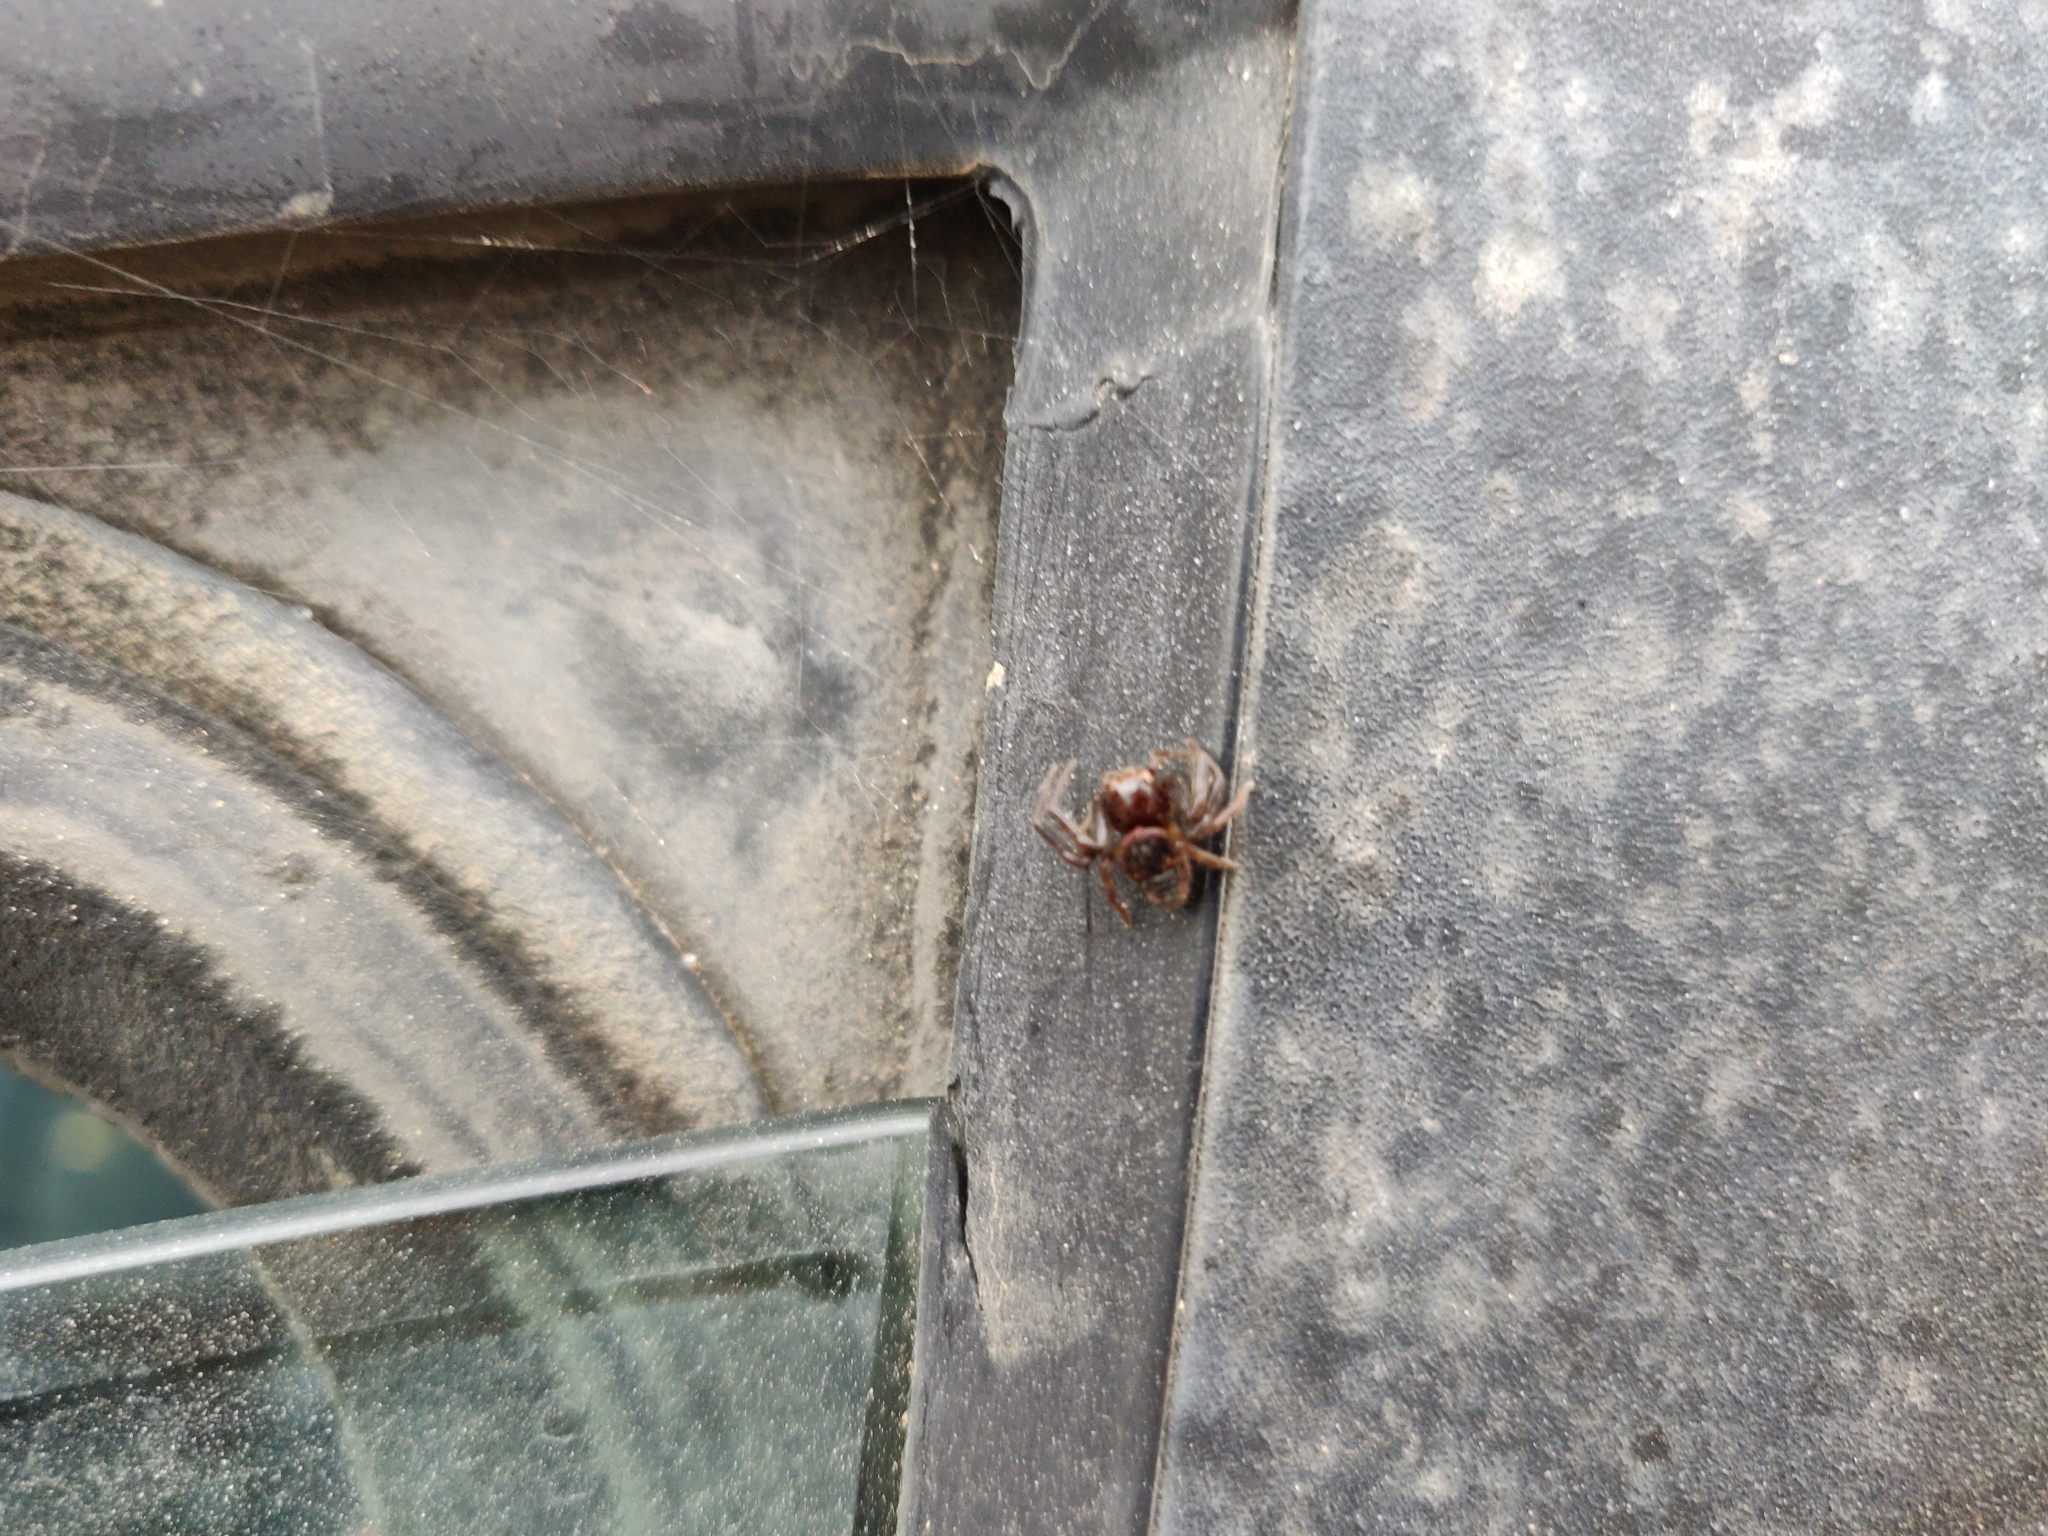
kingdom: Animalia
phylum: Arthropoda
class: Arachnida
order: Araneae
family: Thomisidae
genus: Synema
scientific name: Synema globosum
